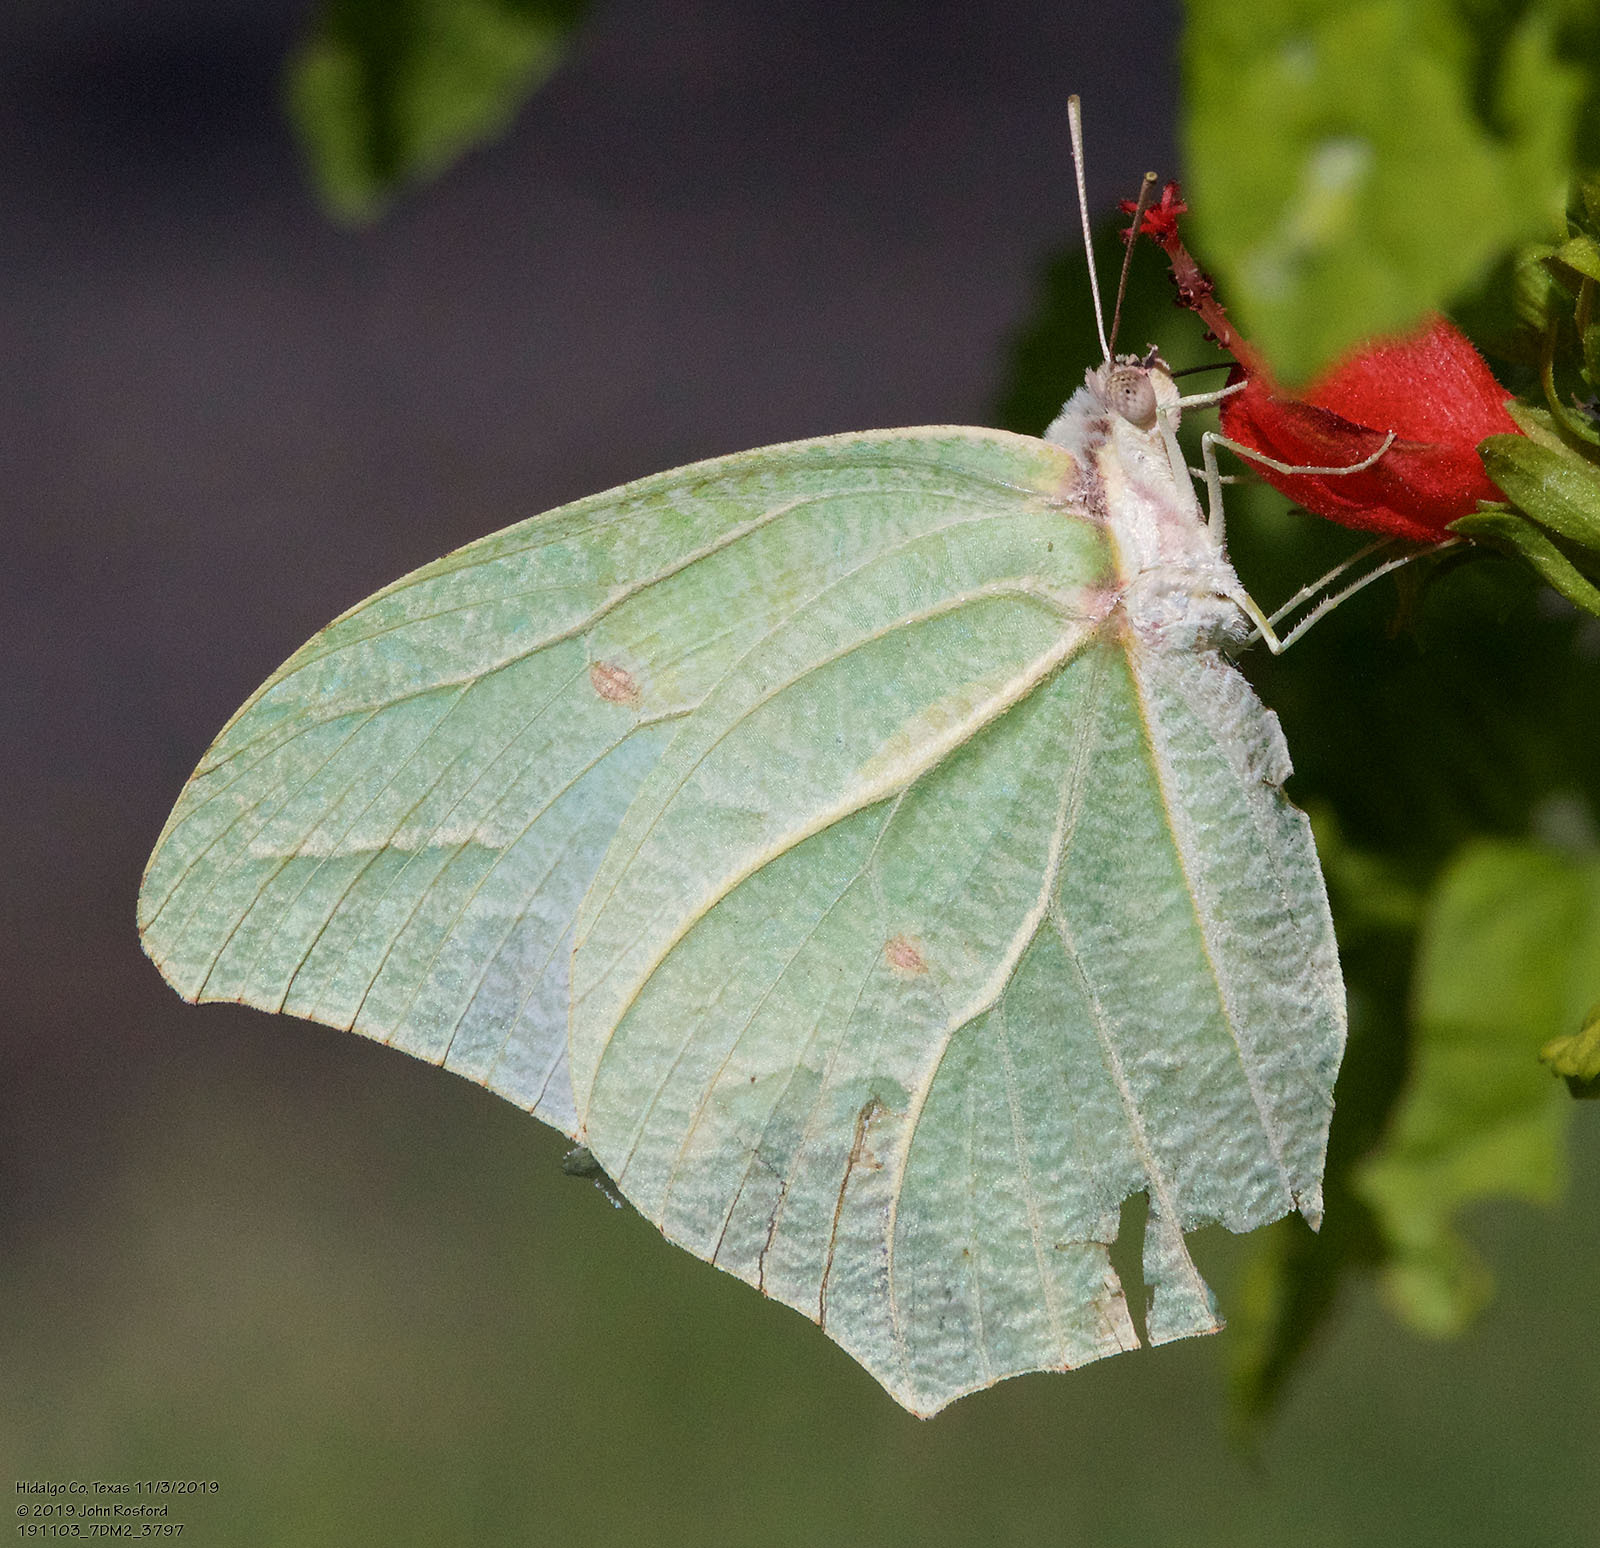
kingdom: Animalia
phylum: Arthropoda
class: Insecta
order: Lepidoptera
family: Pieridae
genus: Anteos
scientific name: Anteos clorinde
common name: White angled sulphur
